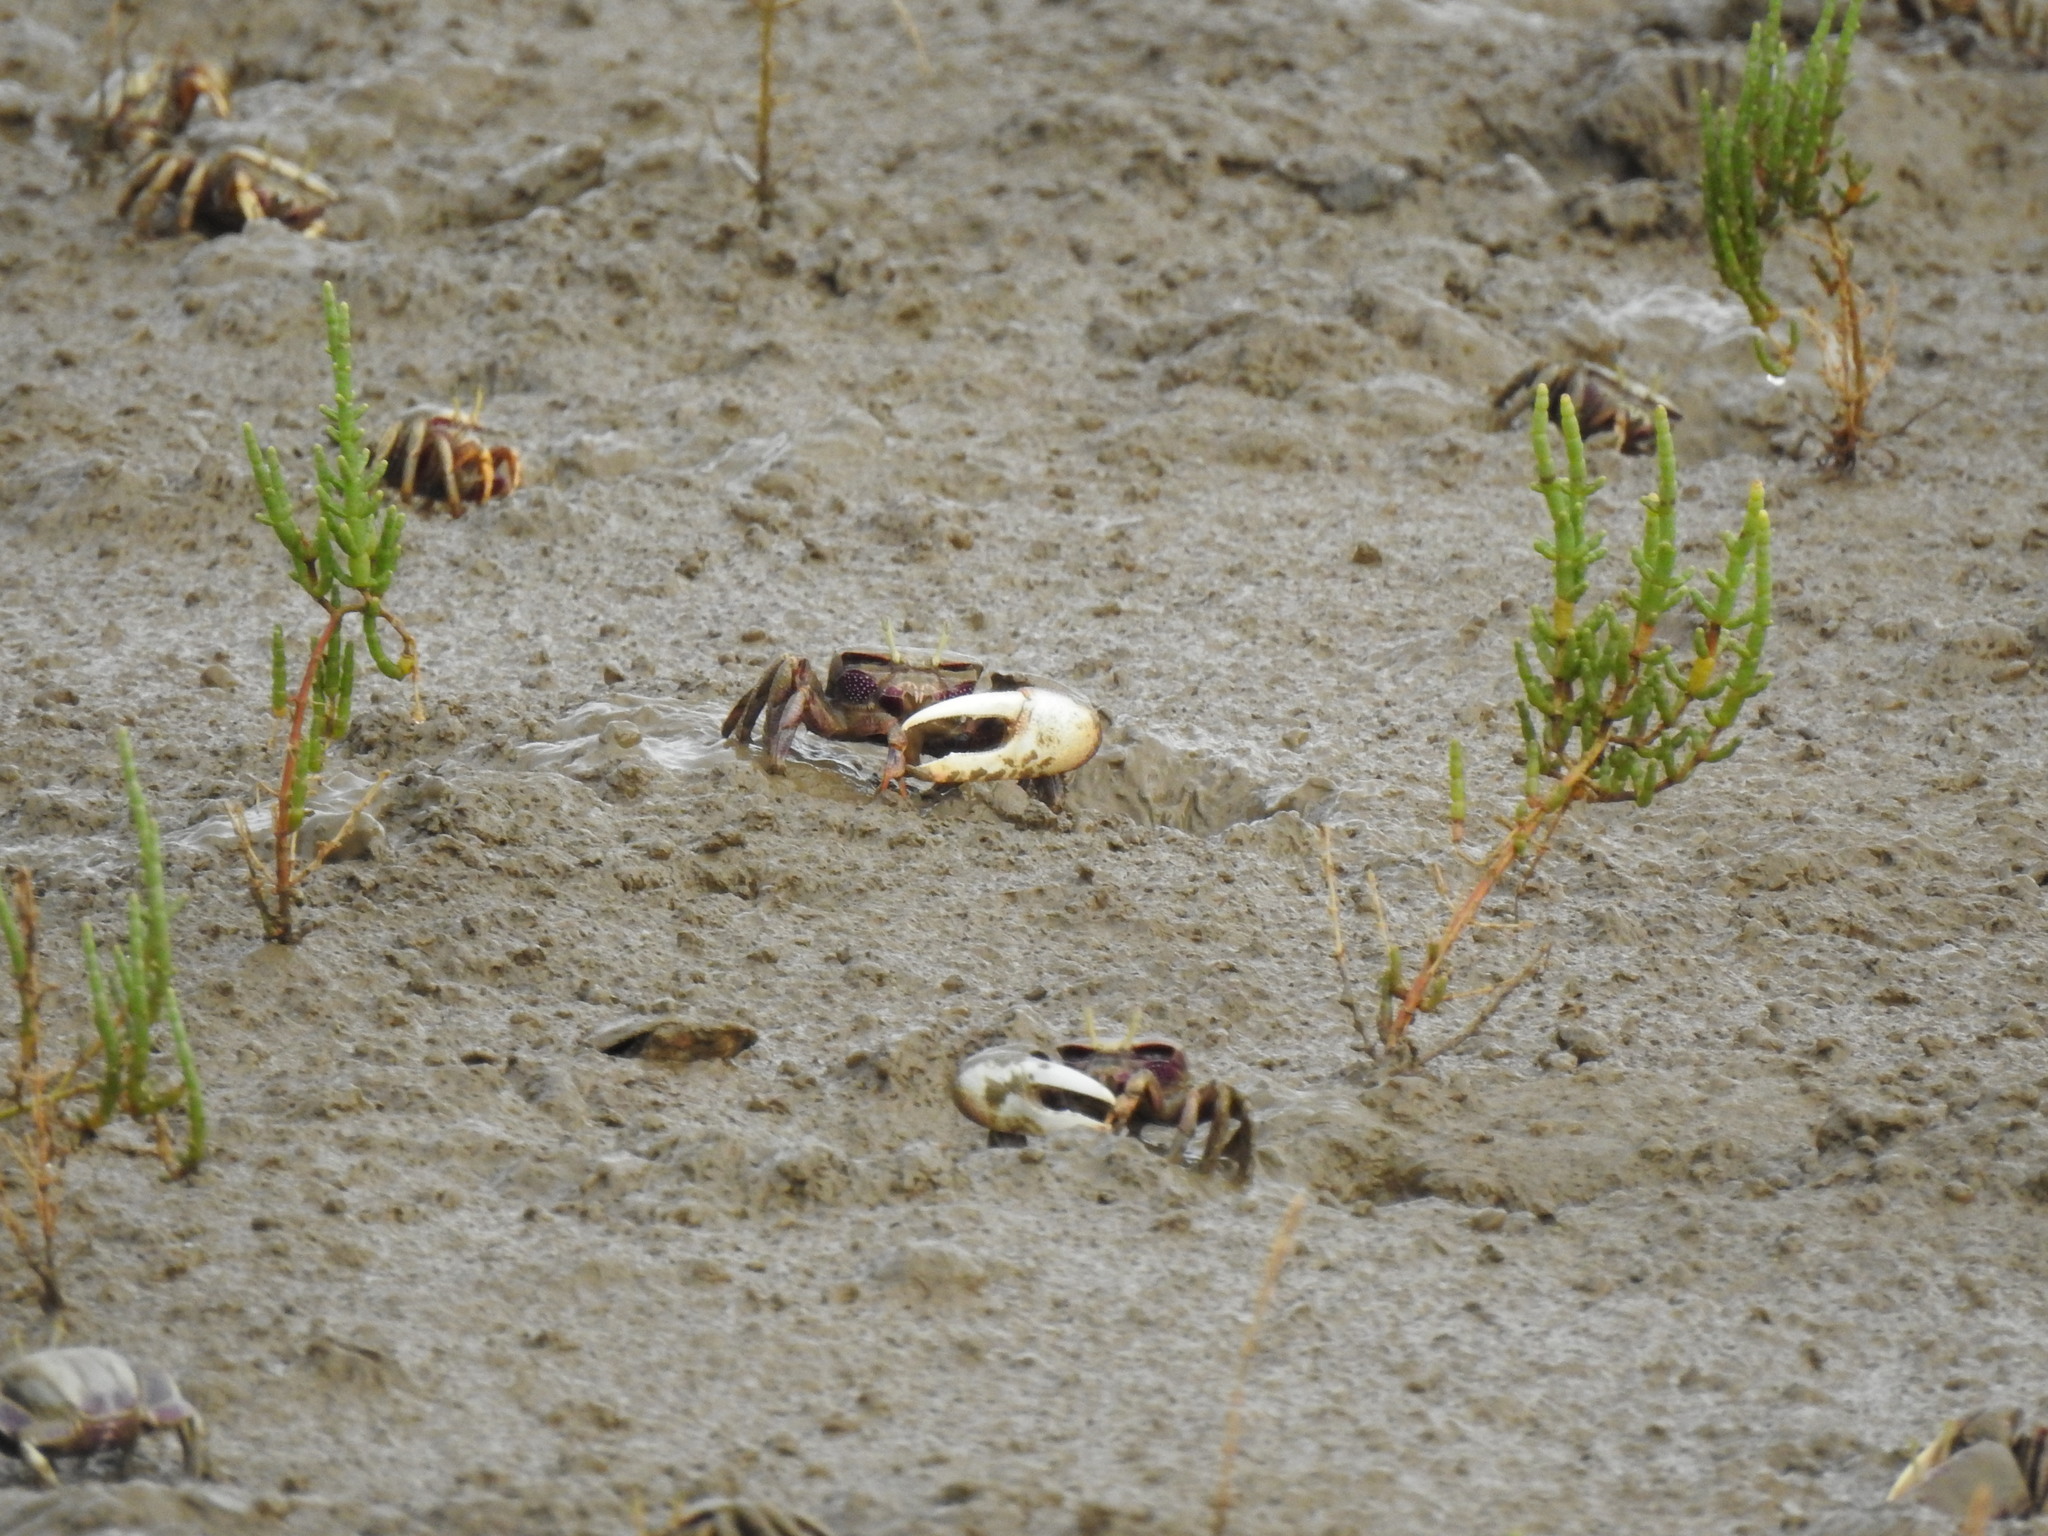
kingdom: Animalia
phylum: Arthropoda
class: Malacostraca
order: Decapoda
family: Ocypodidae
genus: Afruca
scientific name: Afruca tangeri
